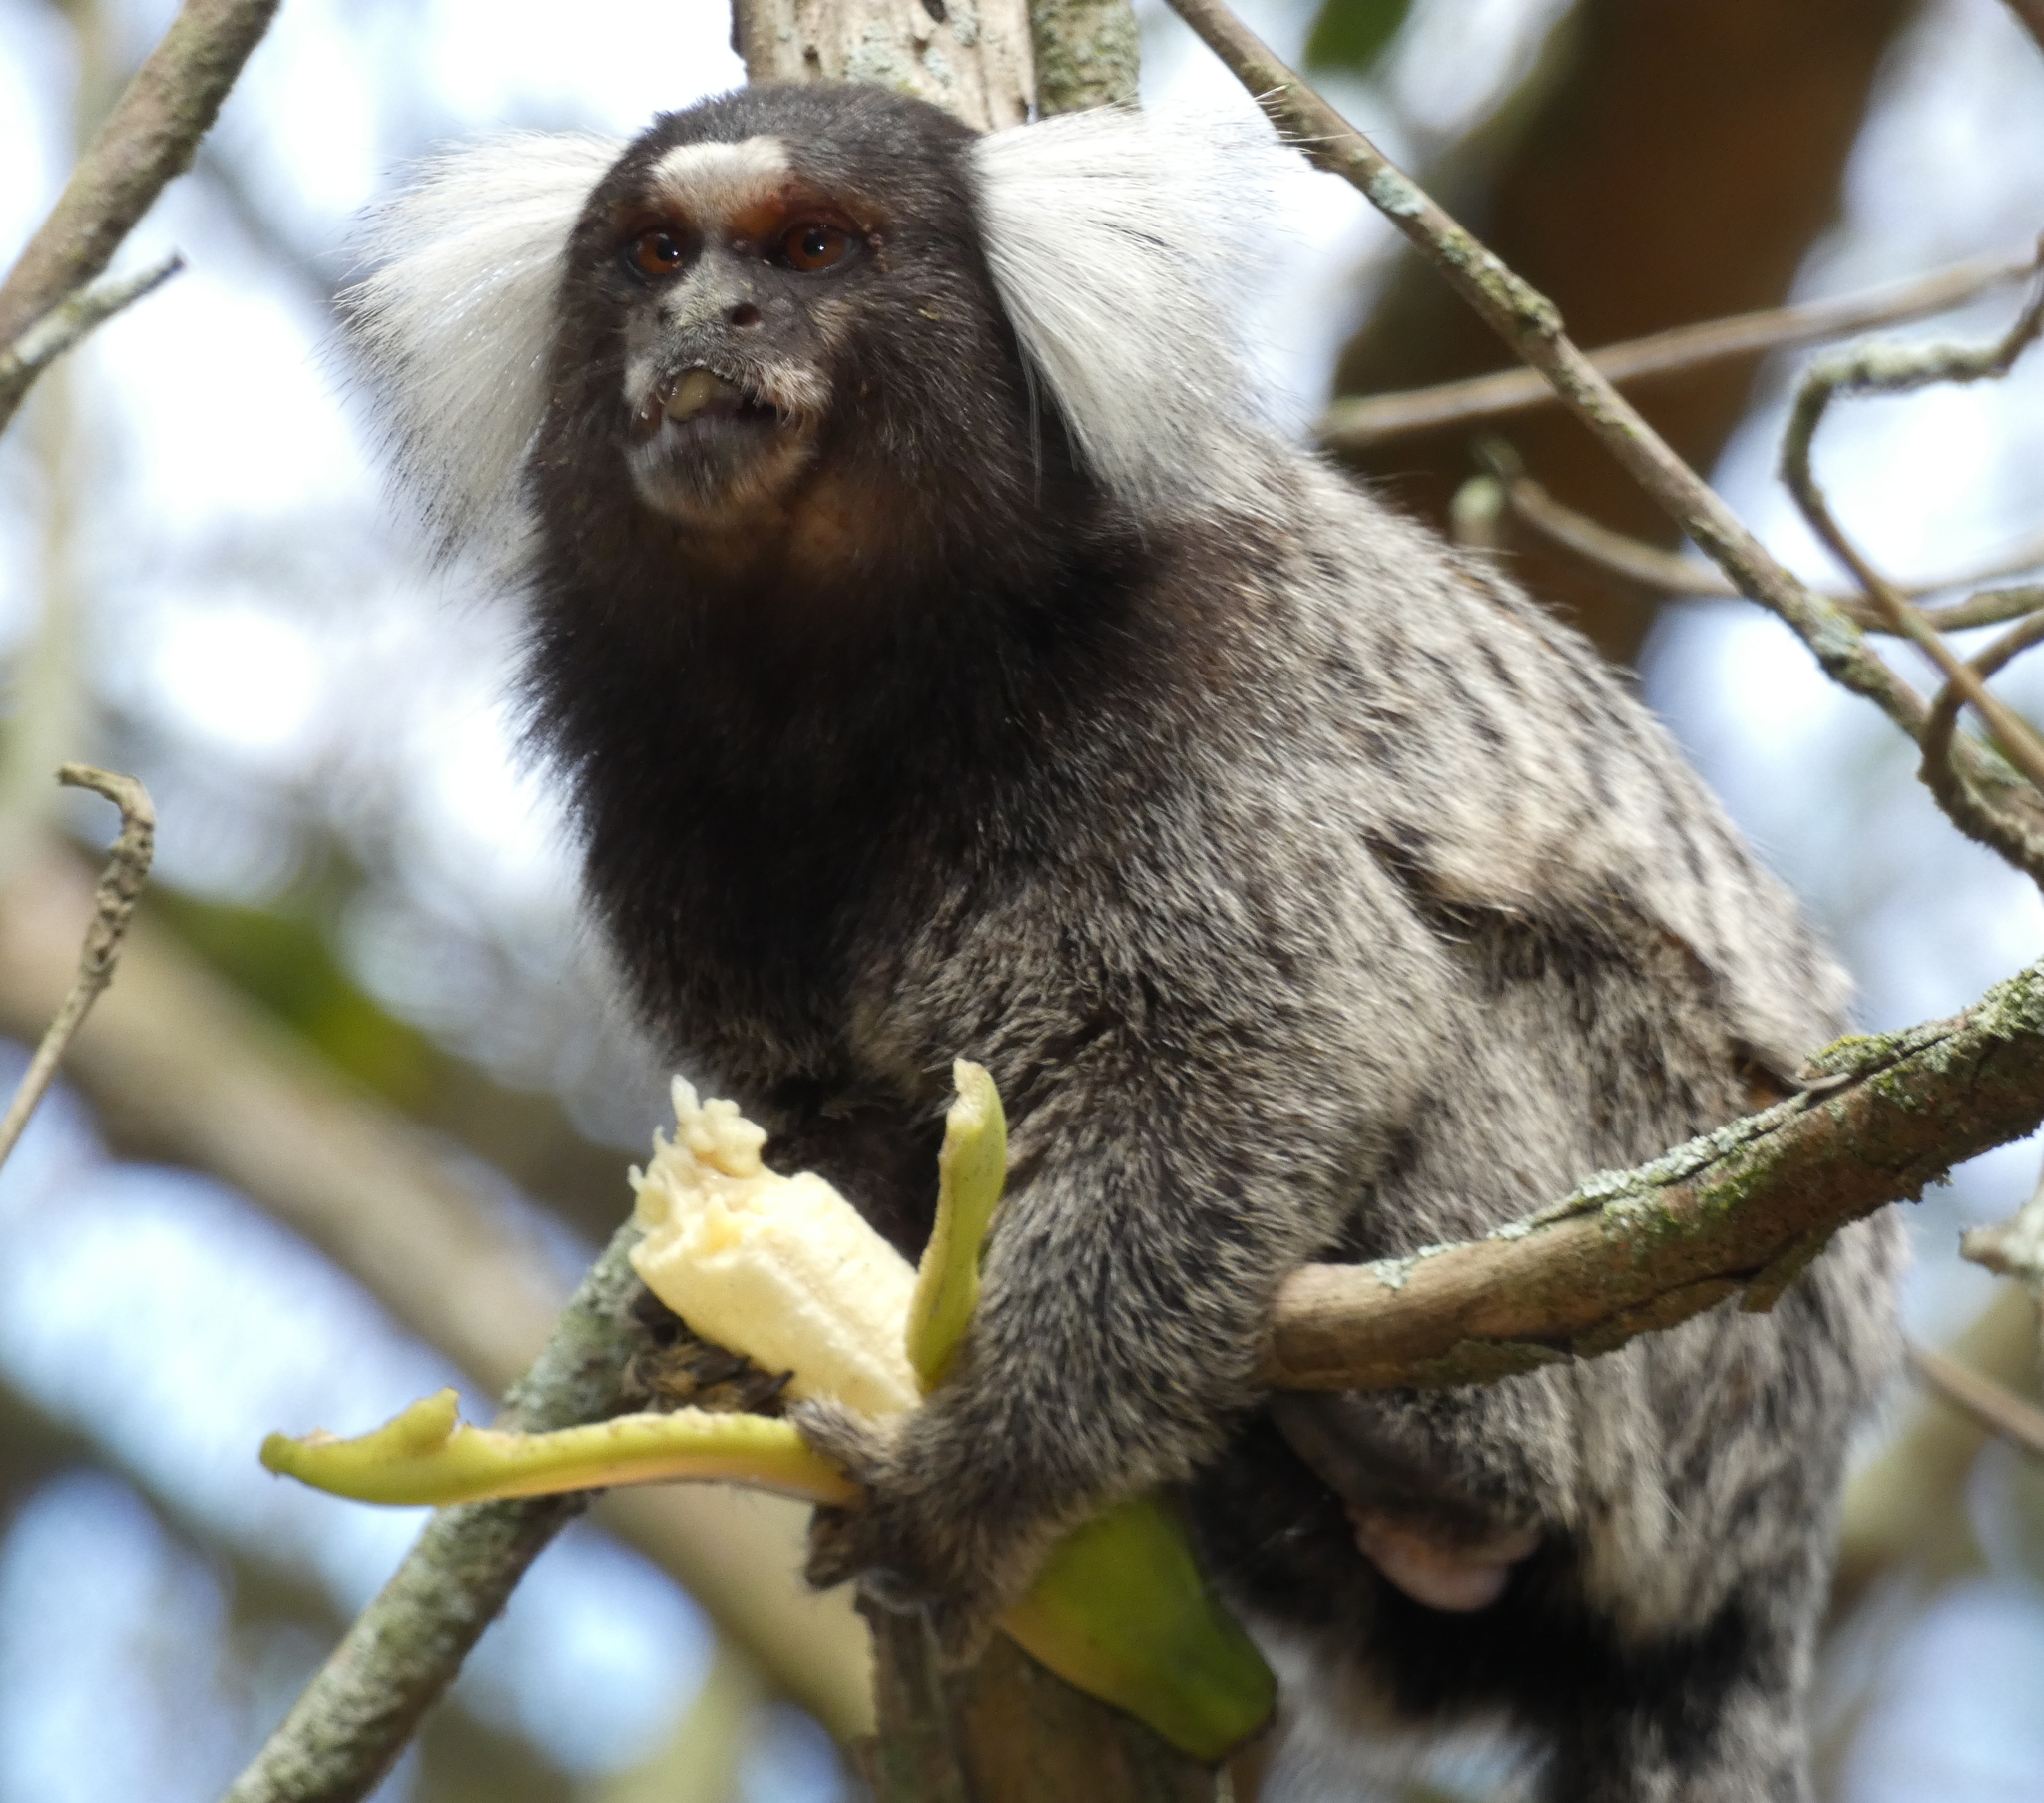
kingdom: Animalia
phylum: Chordata
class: Mammalia
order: Primates
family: Callitrichidae
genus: Callithrix
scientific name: Callithrix jacchus
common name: Common marmoset
